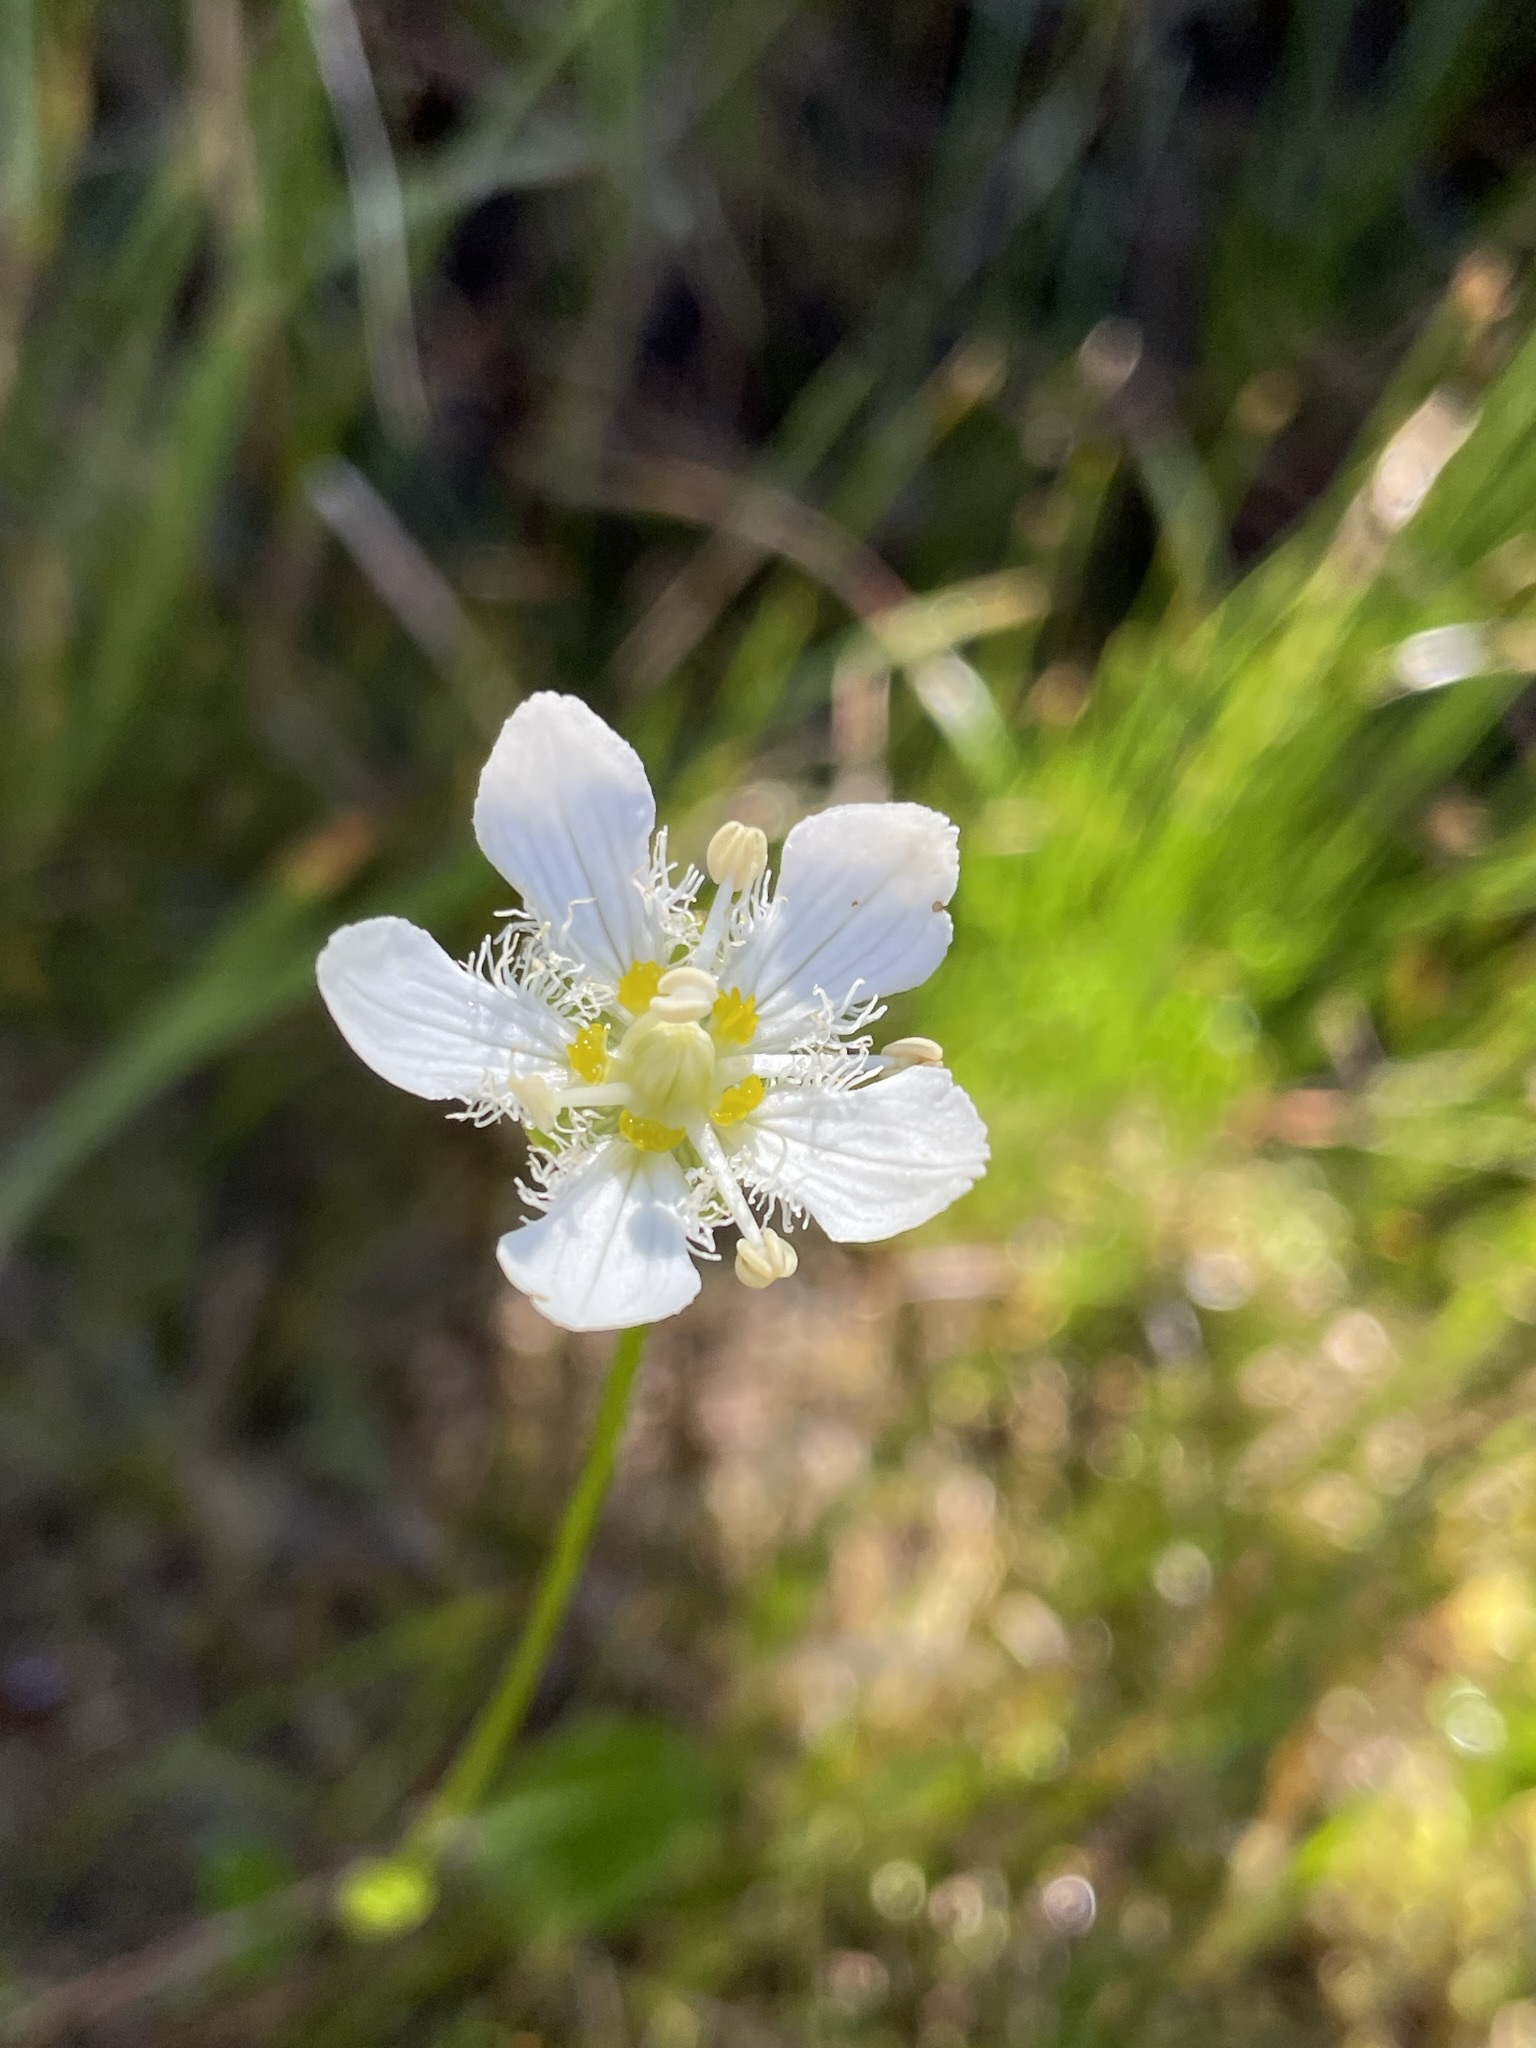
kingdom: Plantae
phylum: Tracheophyta
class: Magnoliopsida
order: Celastrales
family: Parnassiaceae
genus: Parnassia
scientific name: Parnassia fimbriata
